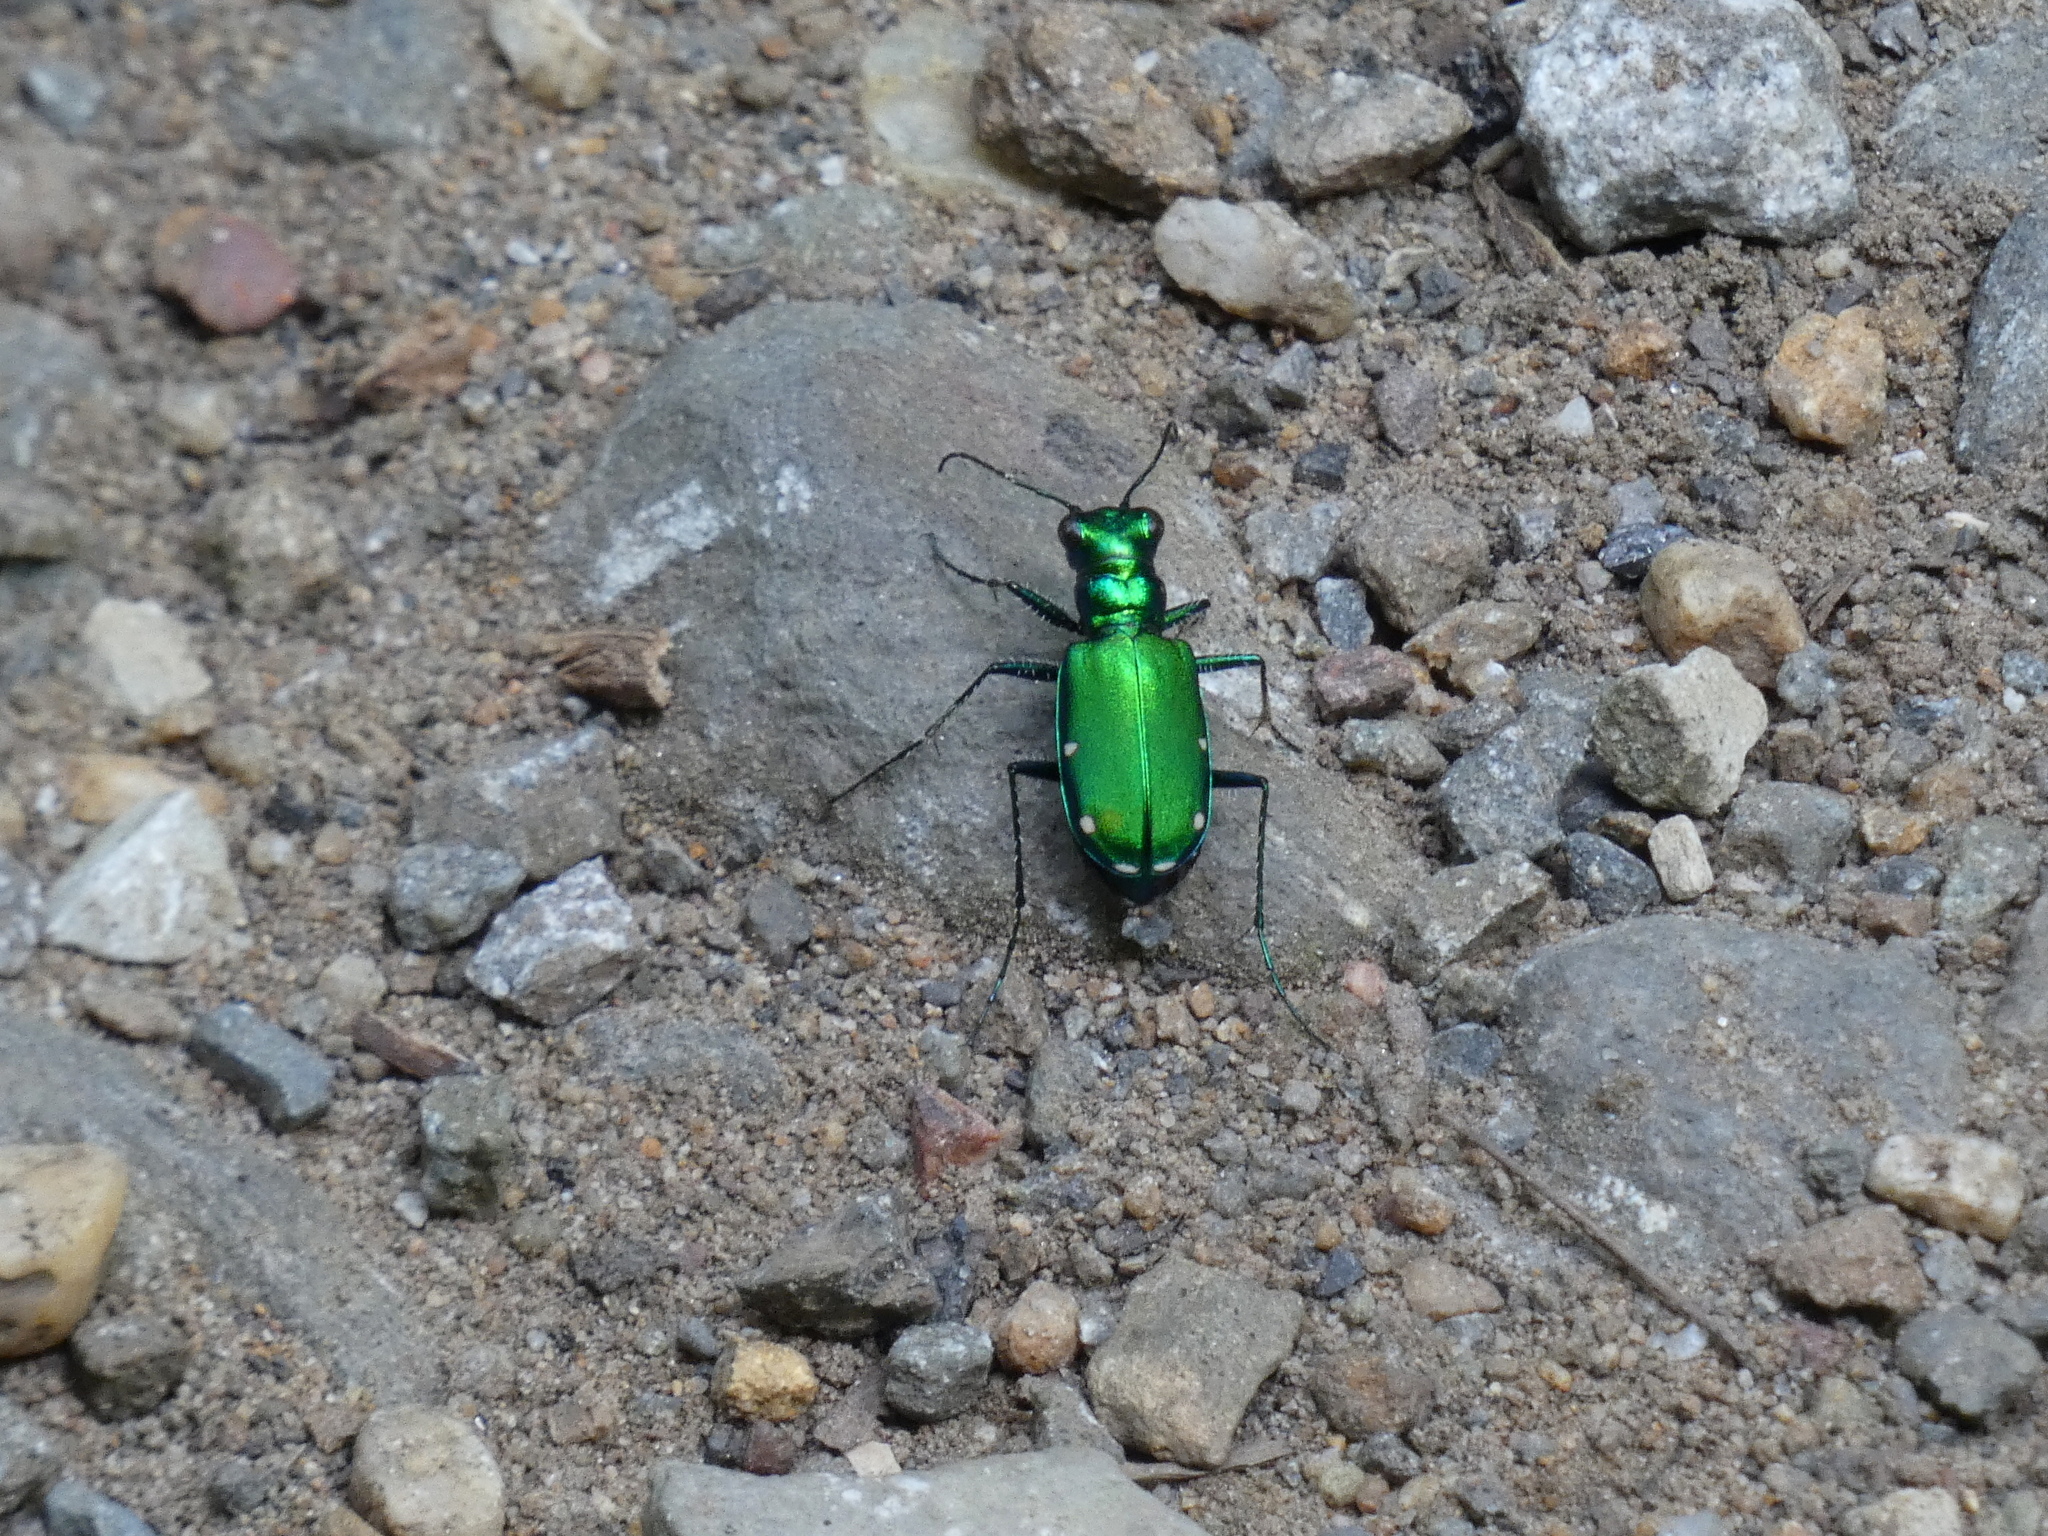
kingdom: Animalia
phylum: Arthropoda
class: Insecta
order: Coleoptera
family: Carabidae
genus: Cicindela
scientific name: Cicindela sexguttata
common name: Six-spotted tiger beetle
